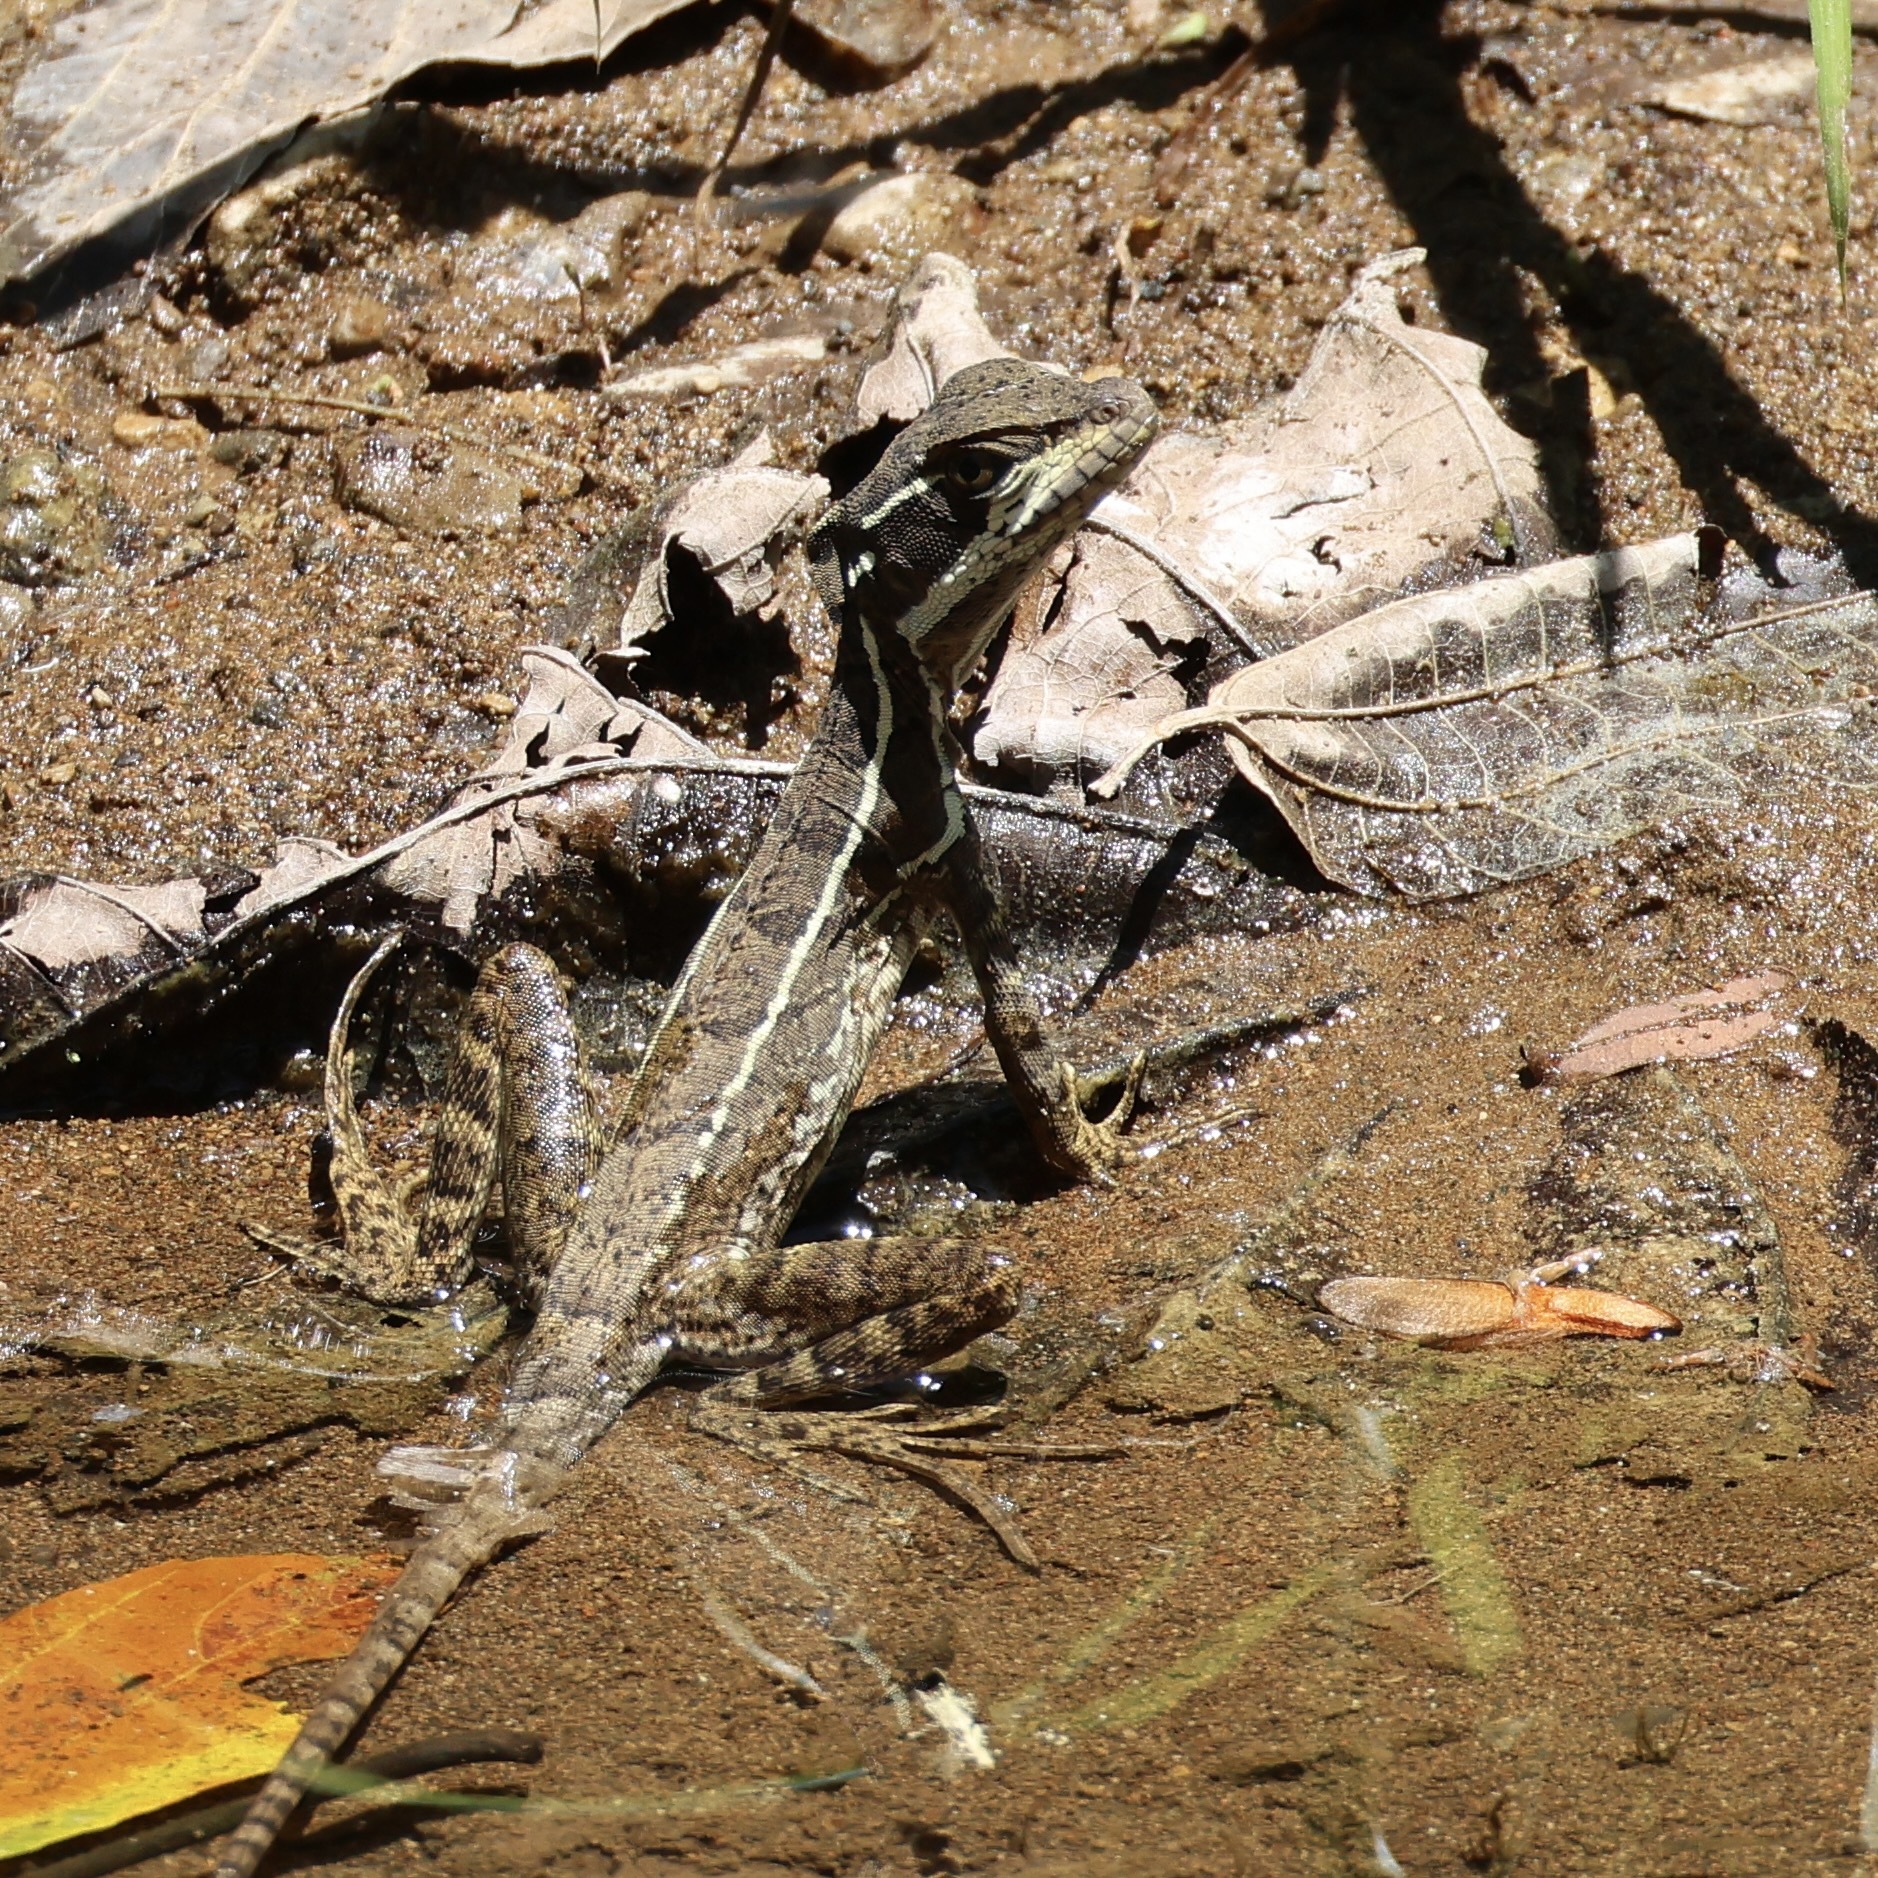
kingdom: Animalia
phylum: Chordata
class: Squamata
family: Corytophanidae
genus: Basiliscus
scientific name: Basiliscus basiliscus
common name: Common basilisk
